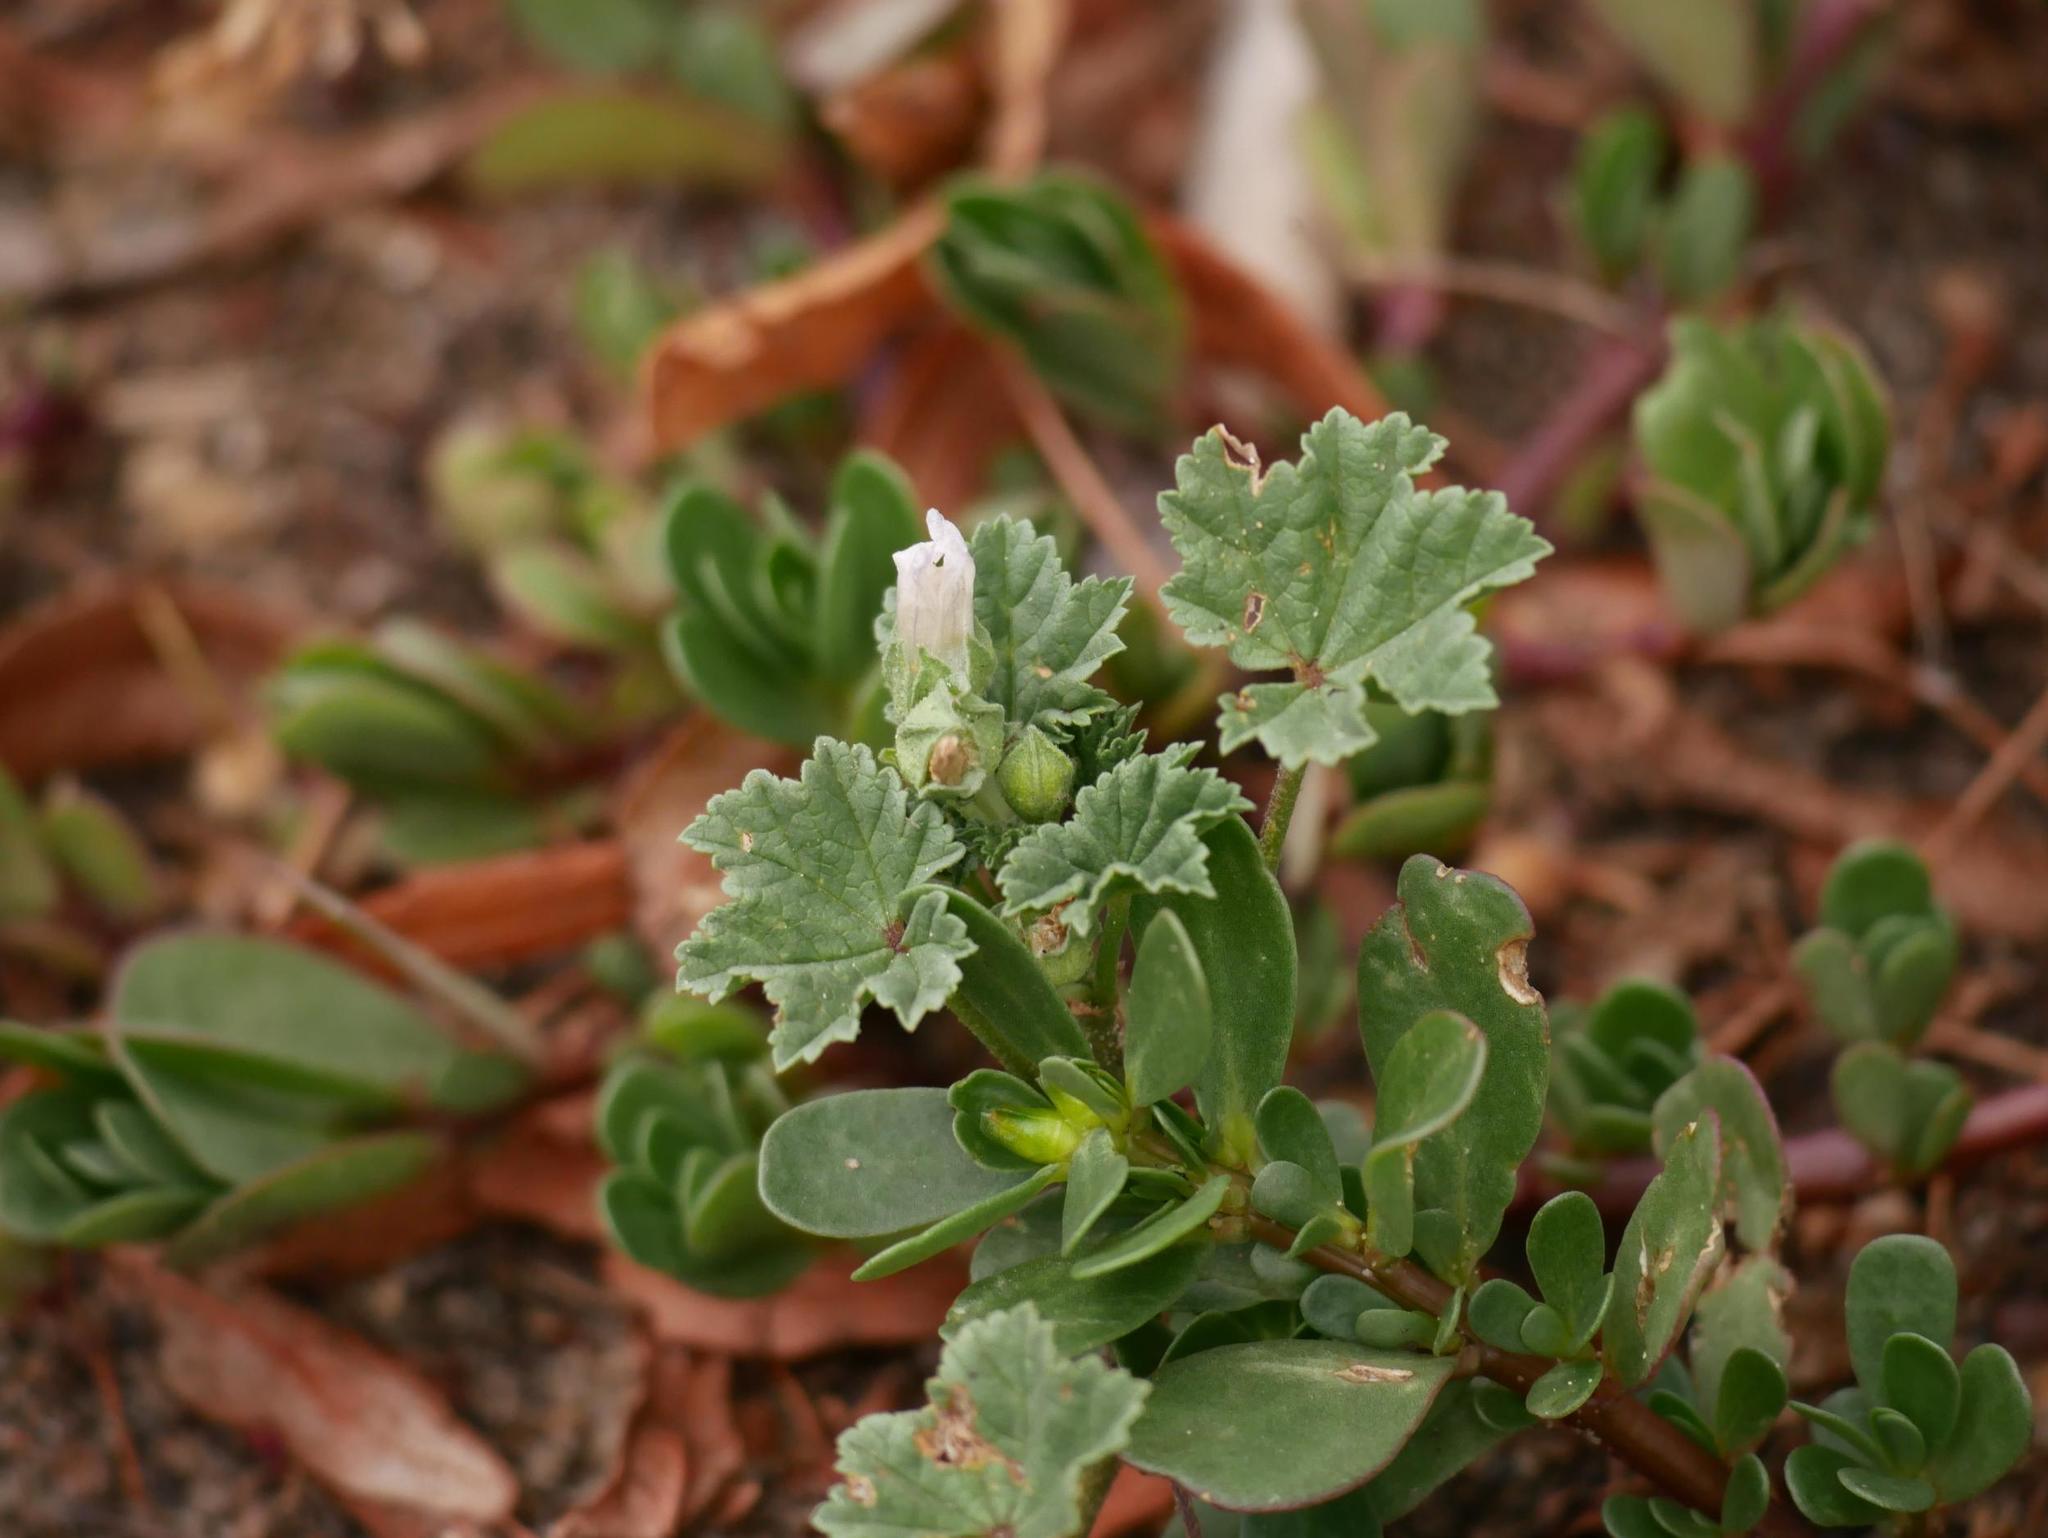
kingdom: Plantae
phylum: Tracheophyta
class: Magnoliopsida
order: Malvales
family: Malvaceae
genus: Malva
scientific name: Malva neglecta
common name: Common mallow
